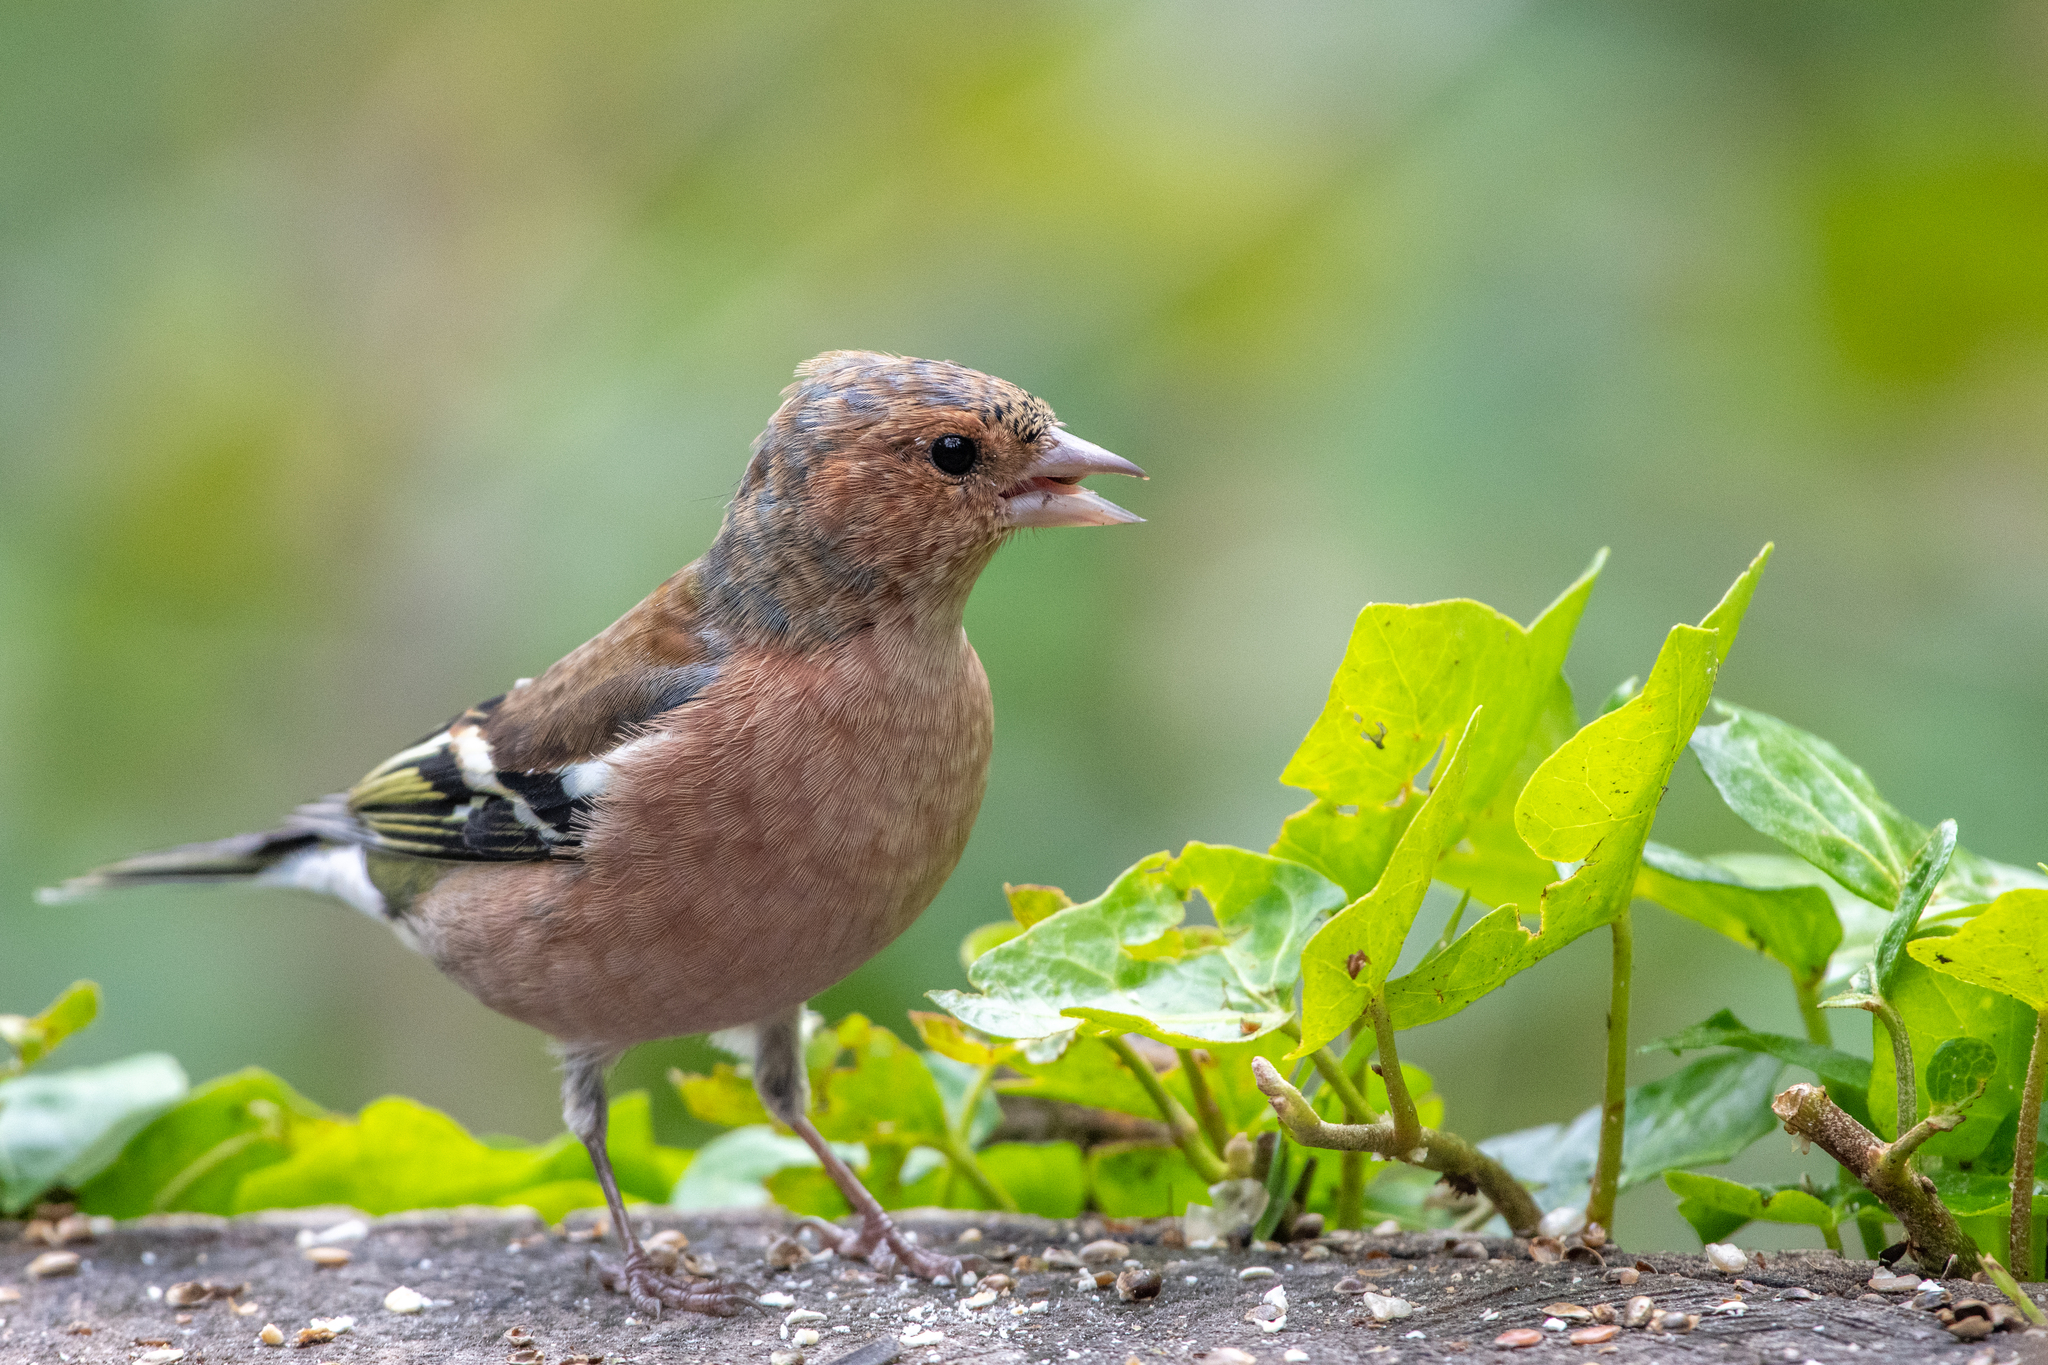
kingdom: Animalia
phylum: Chordata
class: Aves
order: Passeriformes
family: Fringillidae
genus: Fringilla
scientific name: Fringilla coelebs
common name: Common chaffinch
